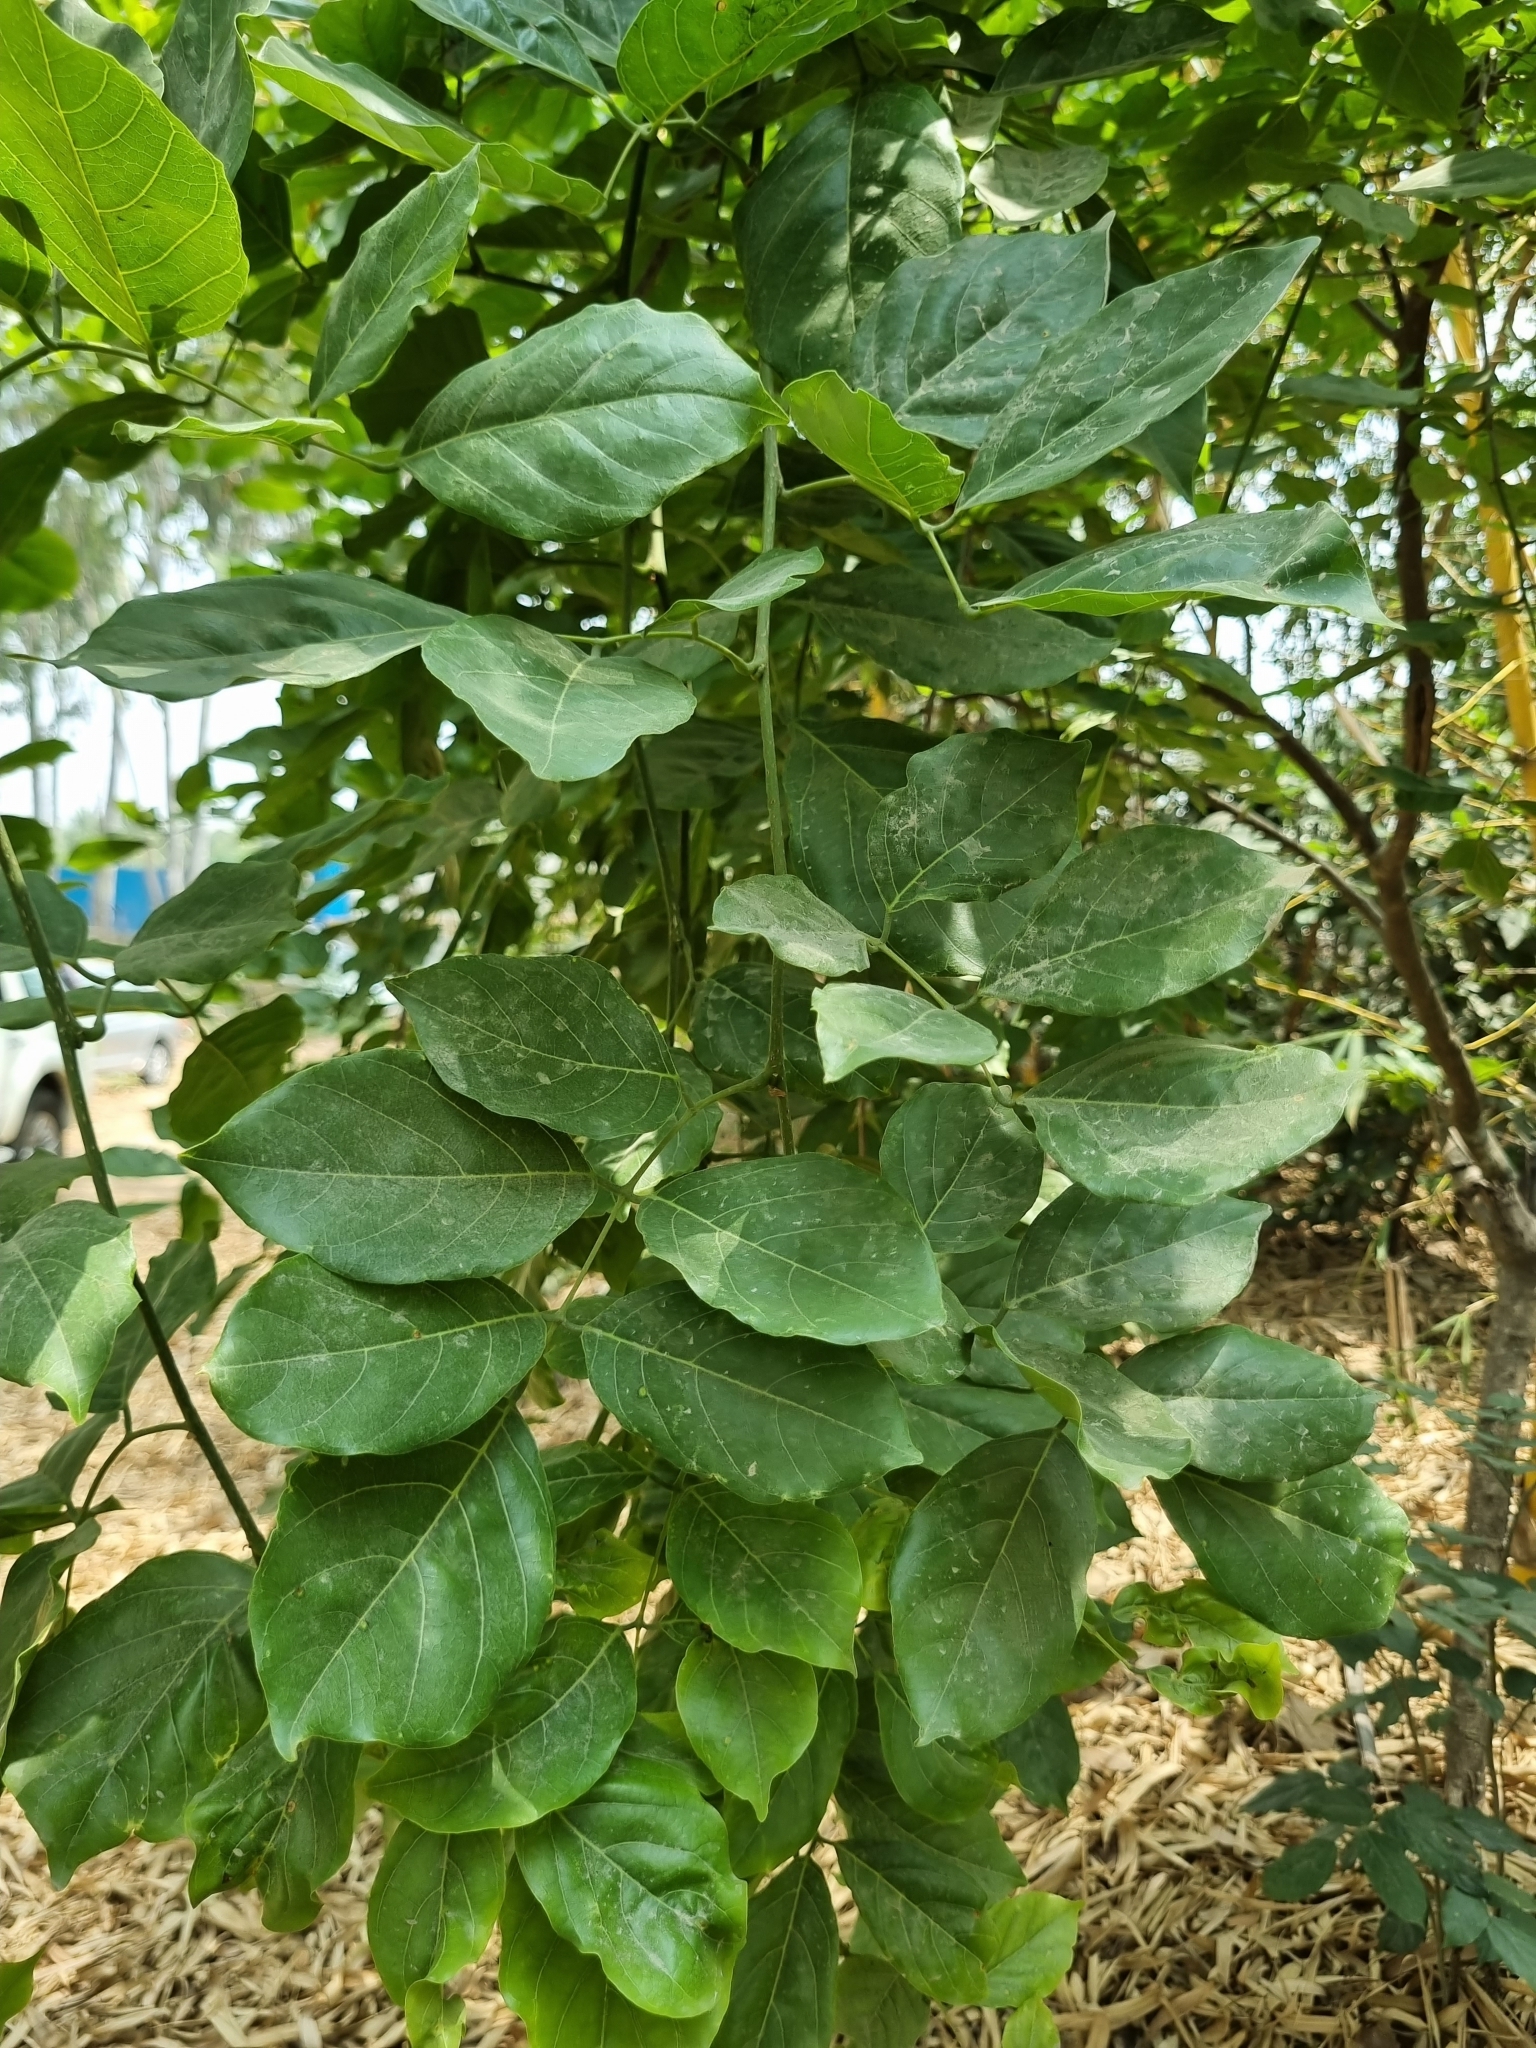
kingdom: Plantae
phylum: Tracheophyta
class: Magnoliopsida
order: Fabales
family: Fabaceae
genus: Pongamia
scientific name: Pongamia pinnata
